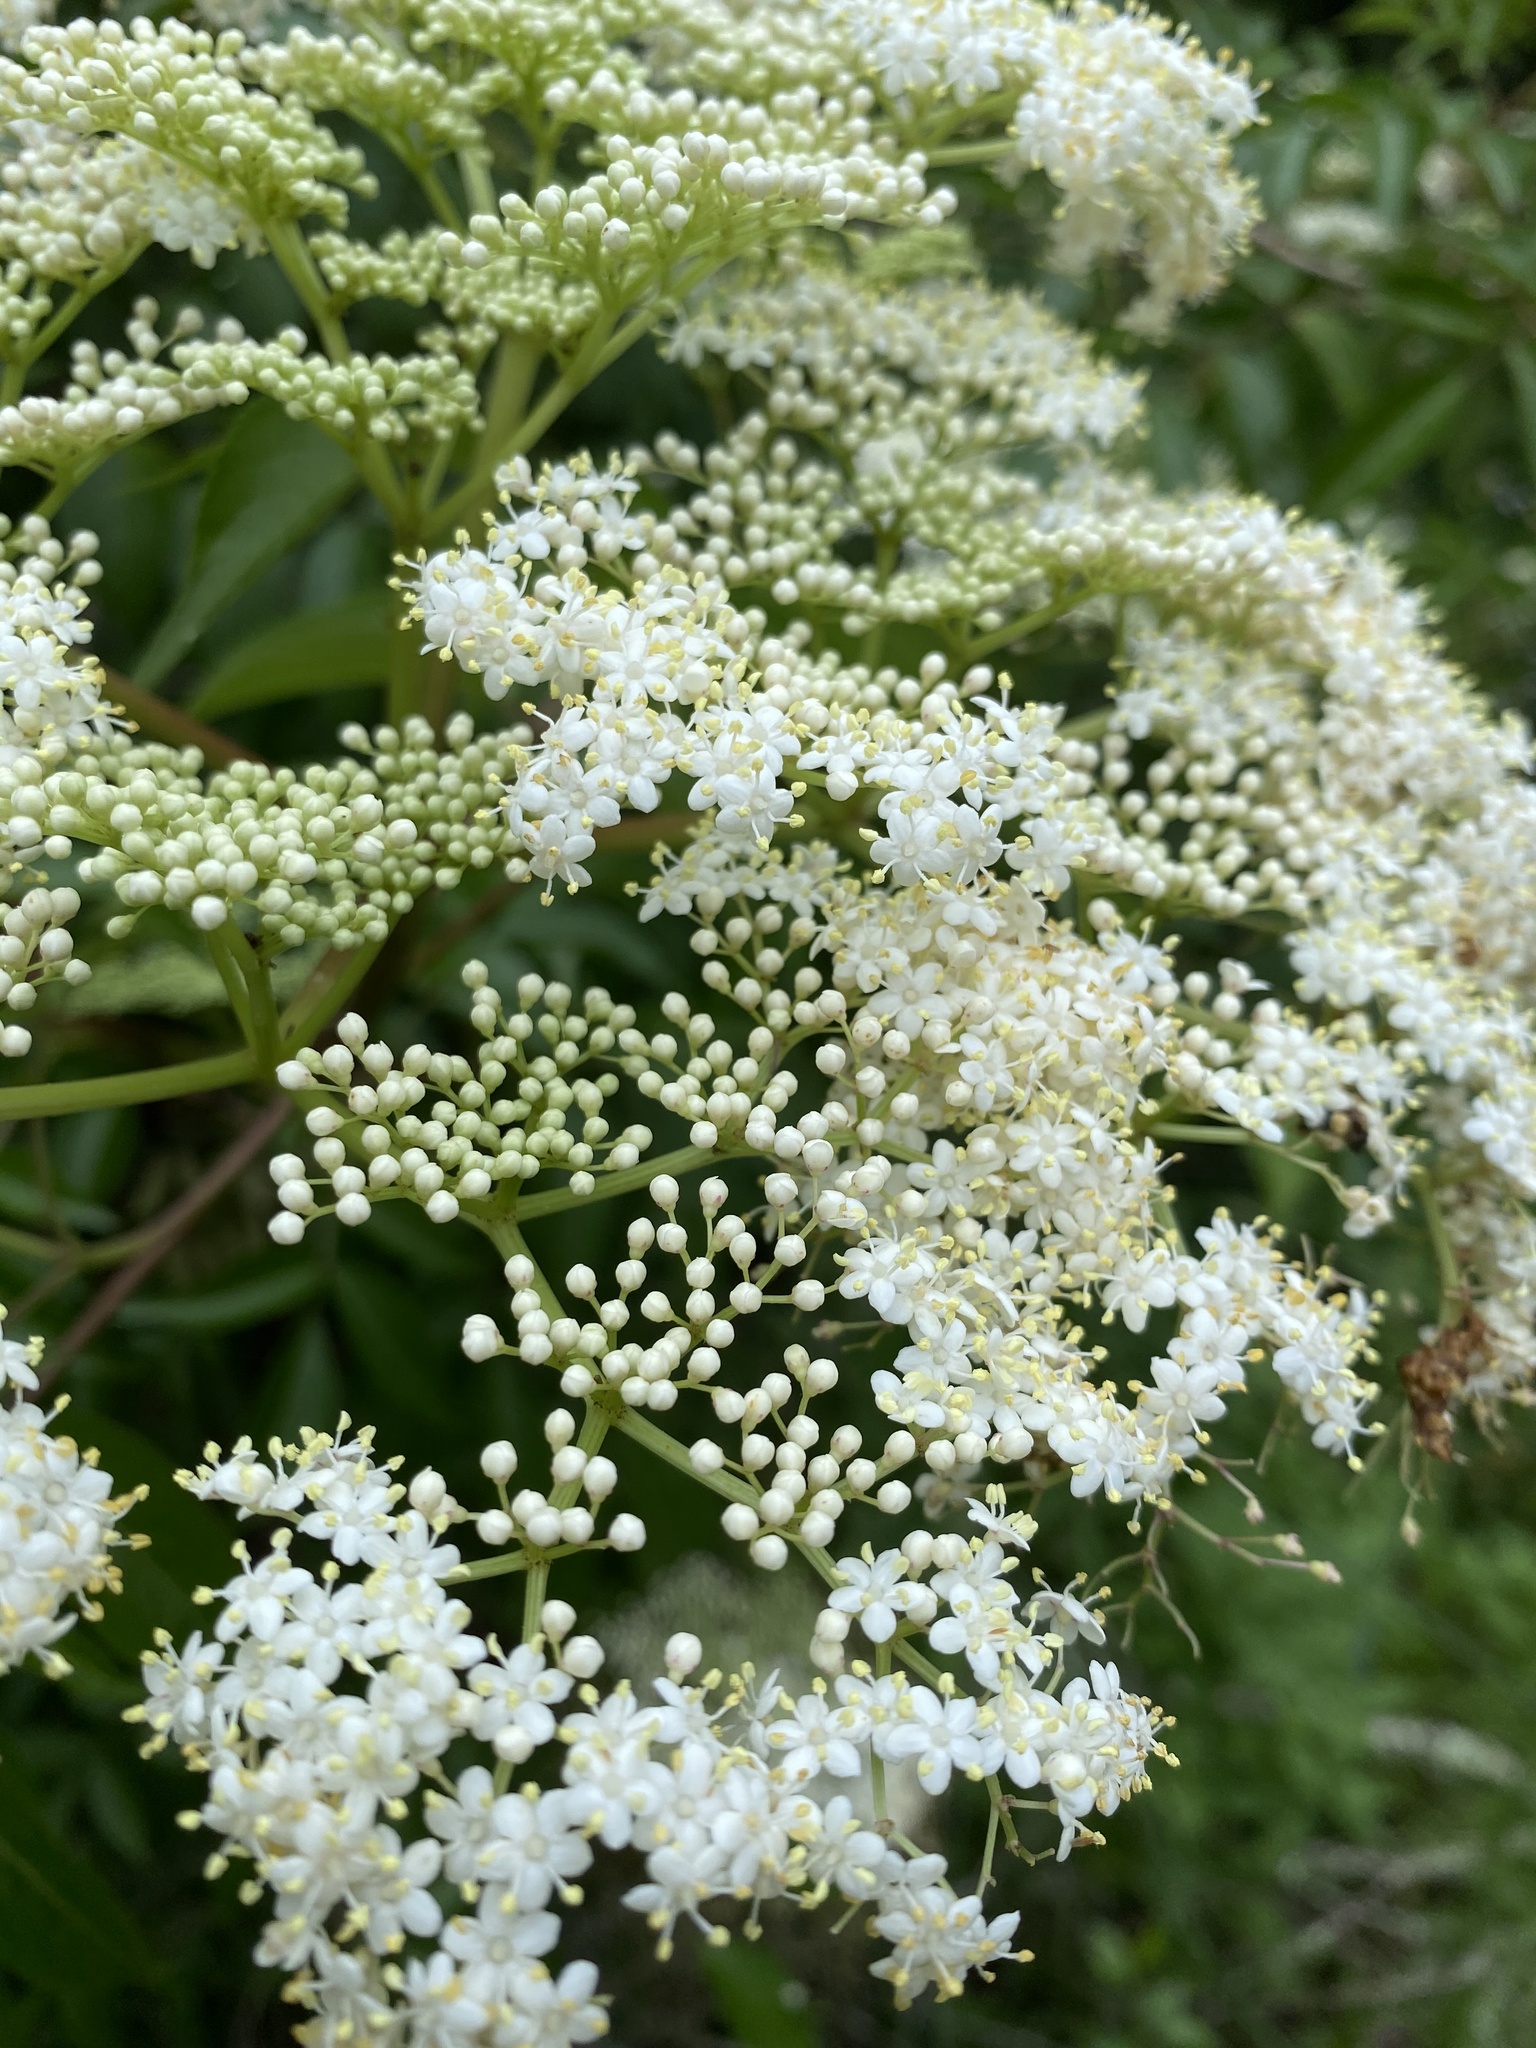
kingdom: Plantae
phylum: Tracheophyta
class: Magnoliopsida
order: Dipsacales
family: Viburnaceae
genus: Sambucus
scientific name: Sambucus canadensis
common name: American elder
